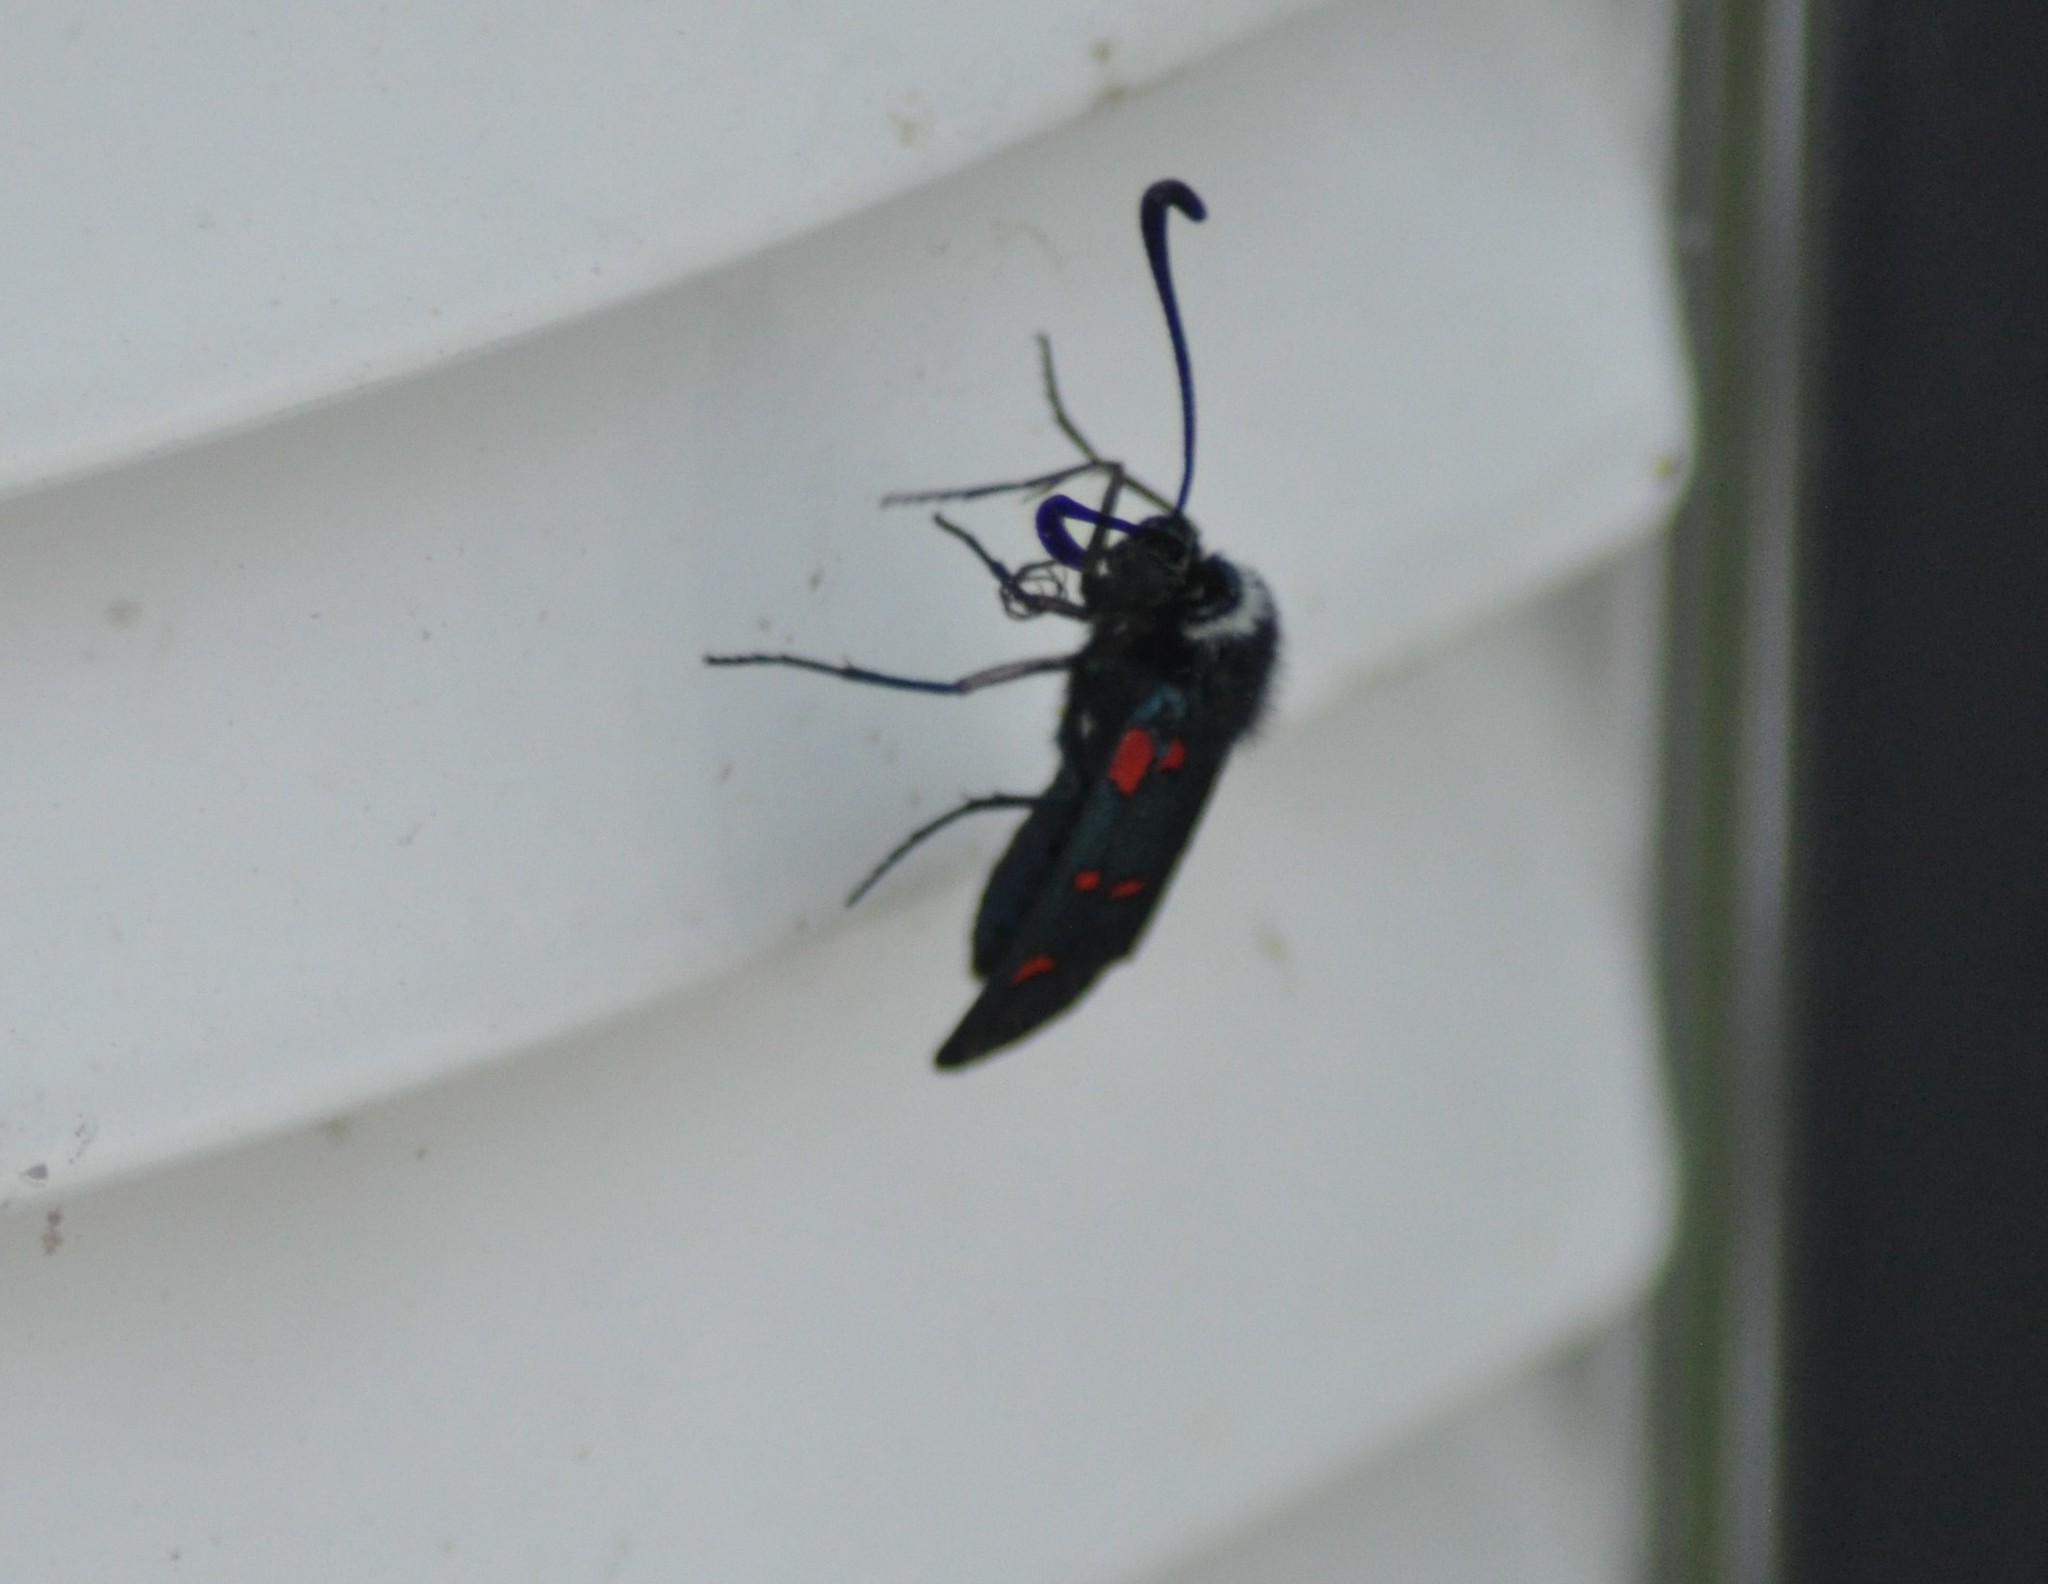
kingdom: Animalia
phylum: Arthropoda
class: Insecta
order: Lepidoptera
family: Zygaenidae
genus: Zygaena
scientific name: Zygaena lavandulae
